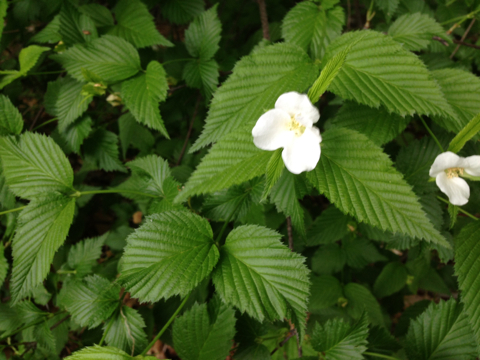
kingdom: Plantae
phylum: Tracheophyta
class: Magnoliopsida
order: Rosales
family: Rosaceae
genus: Rhodotypos
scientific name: Rhodotypos scandens
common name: Jetbead
